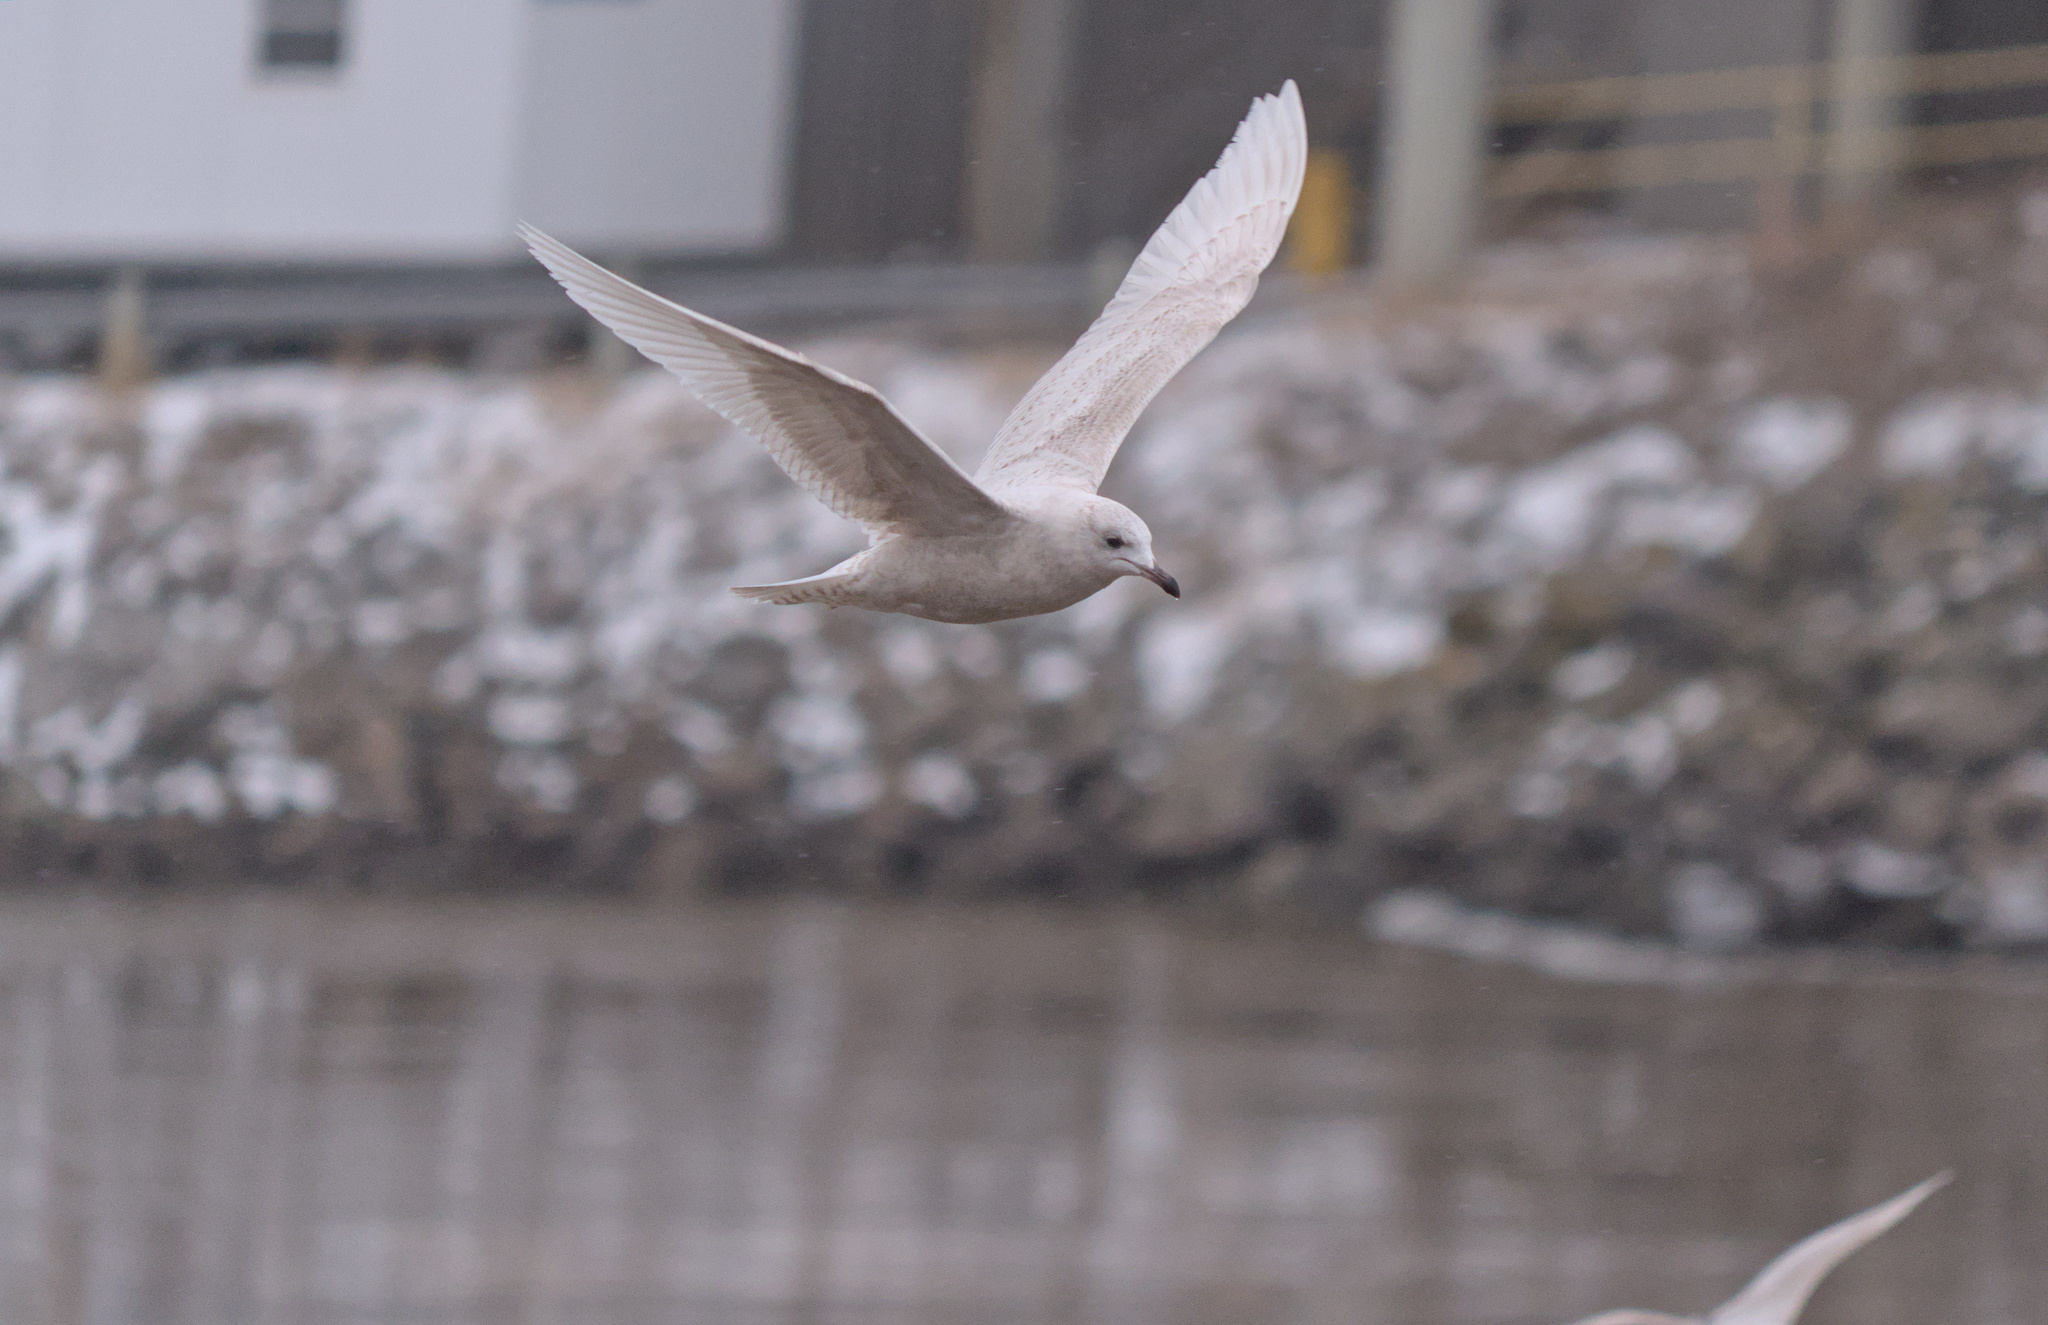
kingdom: Animalia
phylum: Chordata
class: Aves
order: Charadriiformes
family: Laridae
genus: Larus
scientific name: Larus glaucoides
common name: Iceland gull
